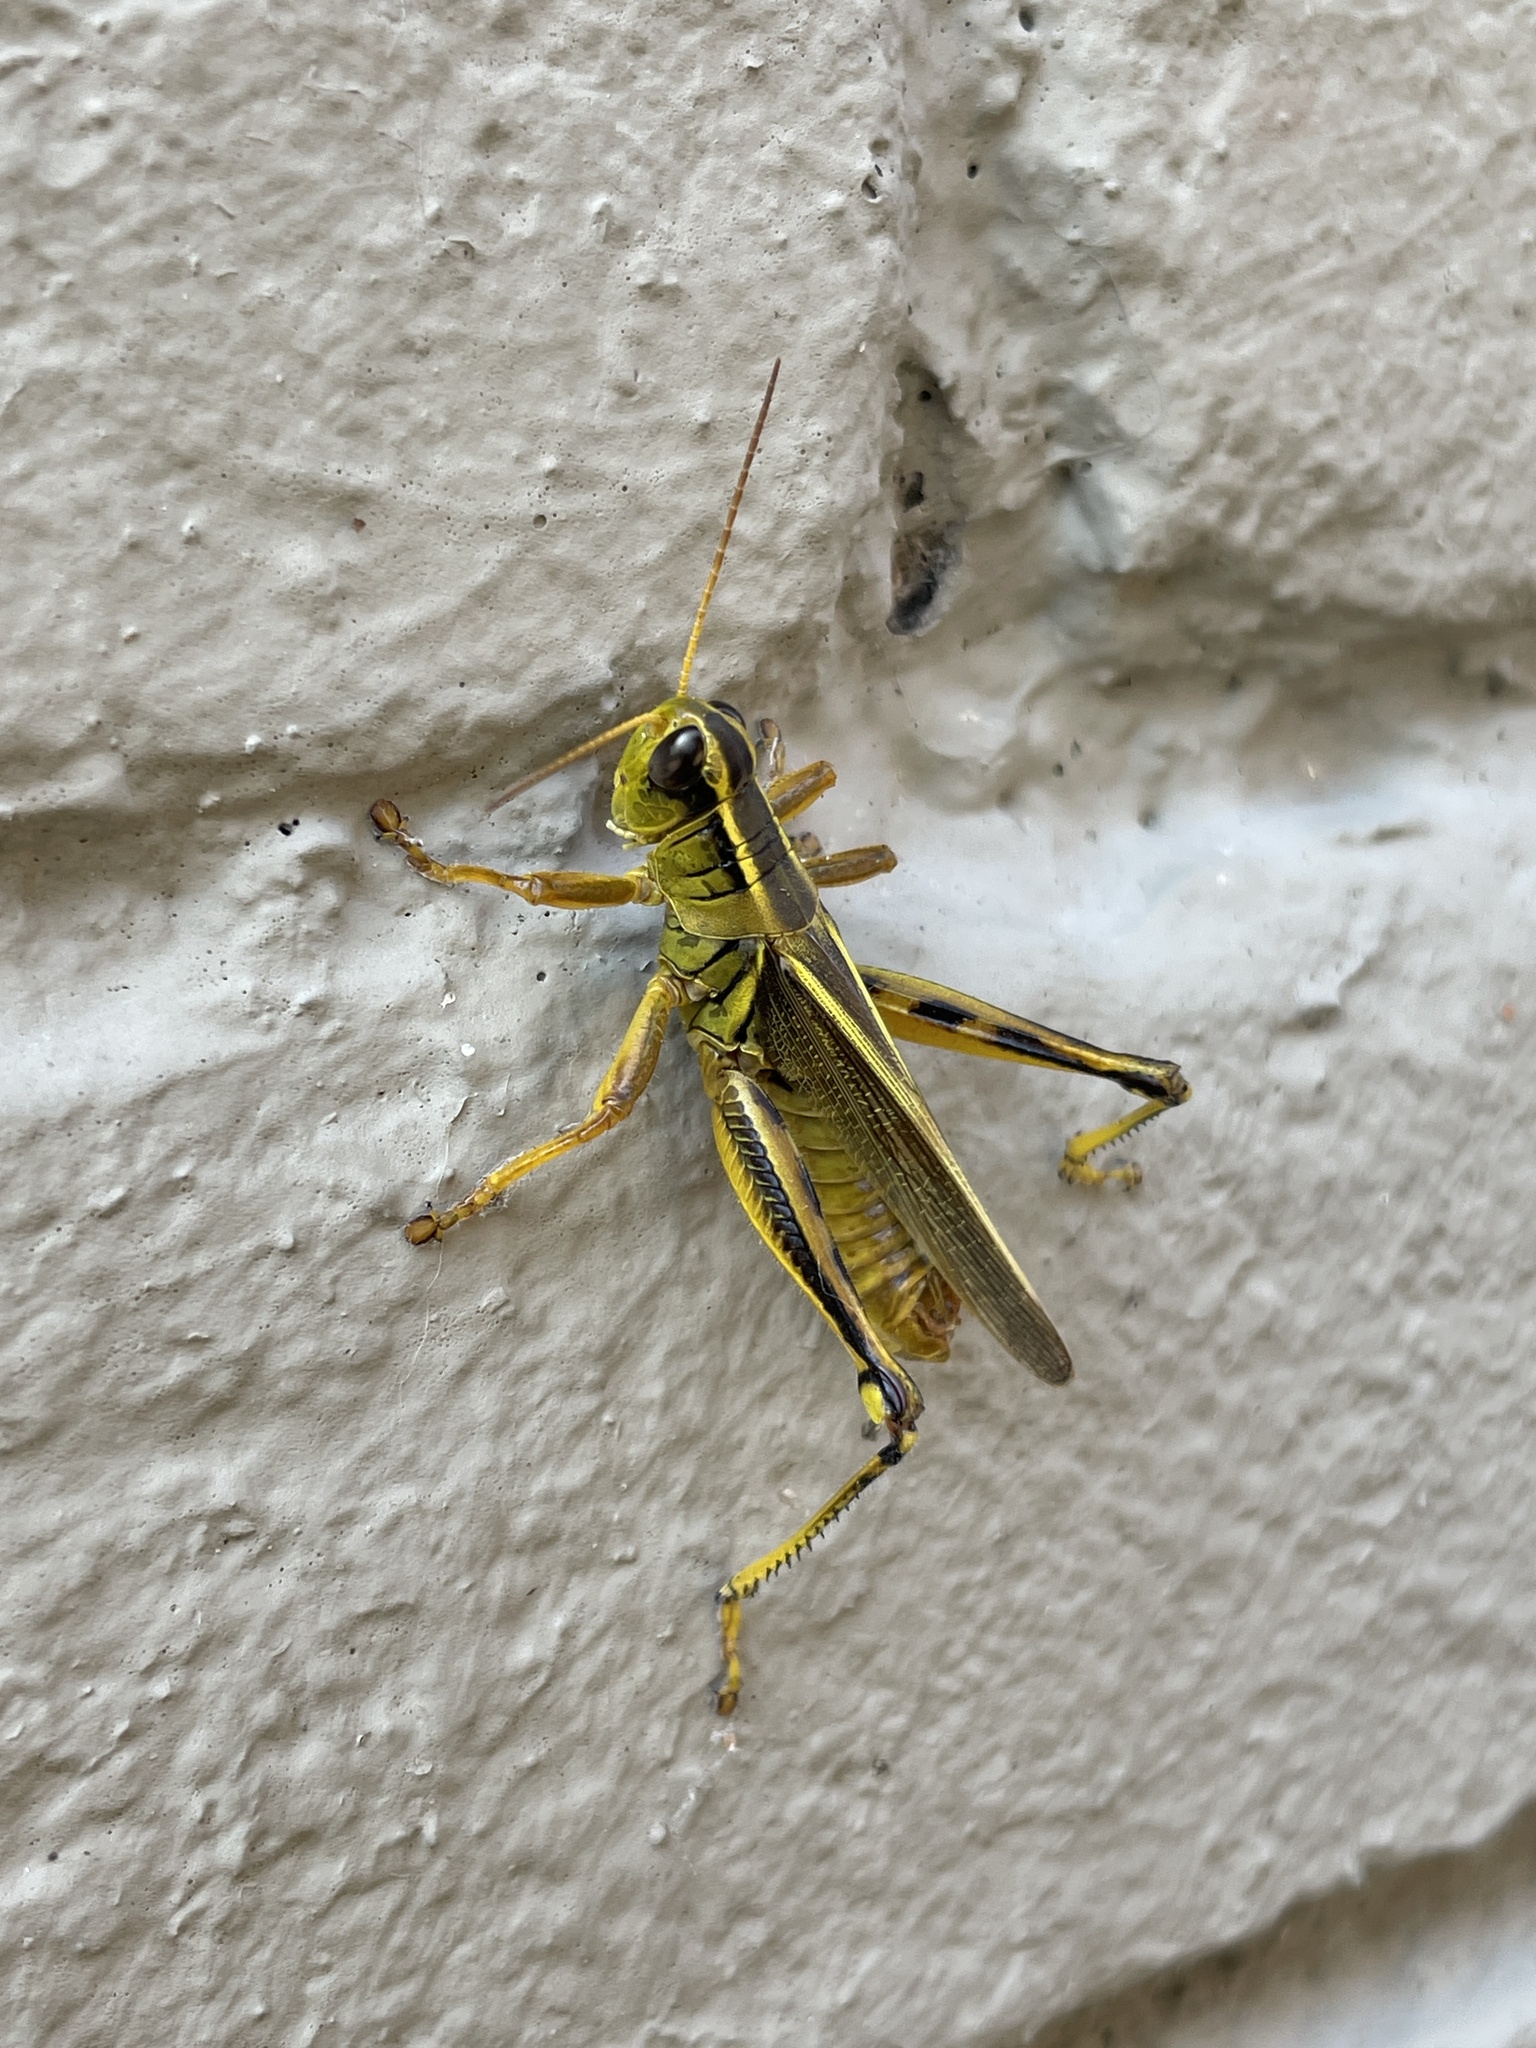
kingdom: Animalia
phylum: Arthropoda
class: Insecta
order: Orthoptera
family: Acrididae
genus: Melanoplus
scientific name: Melanoplus bivittatus
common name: Two-striped grasshopper
